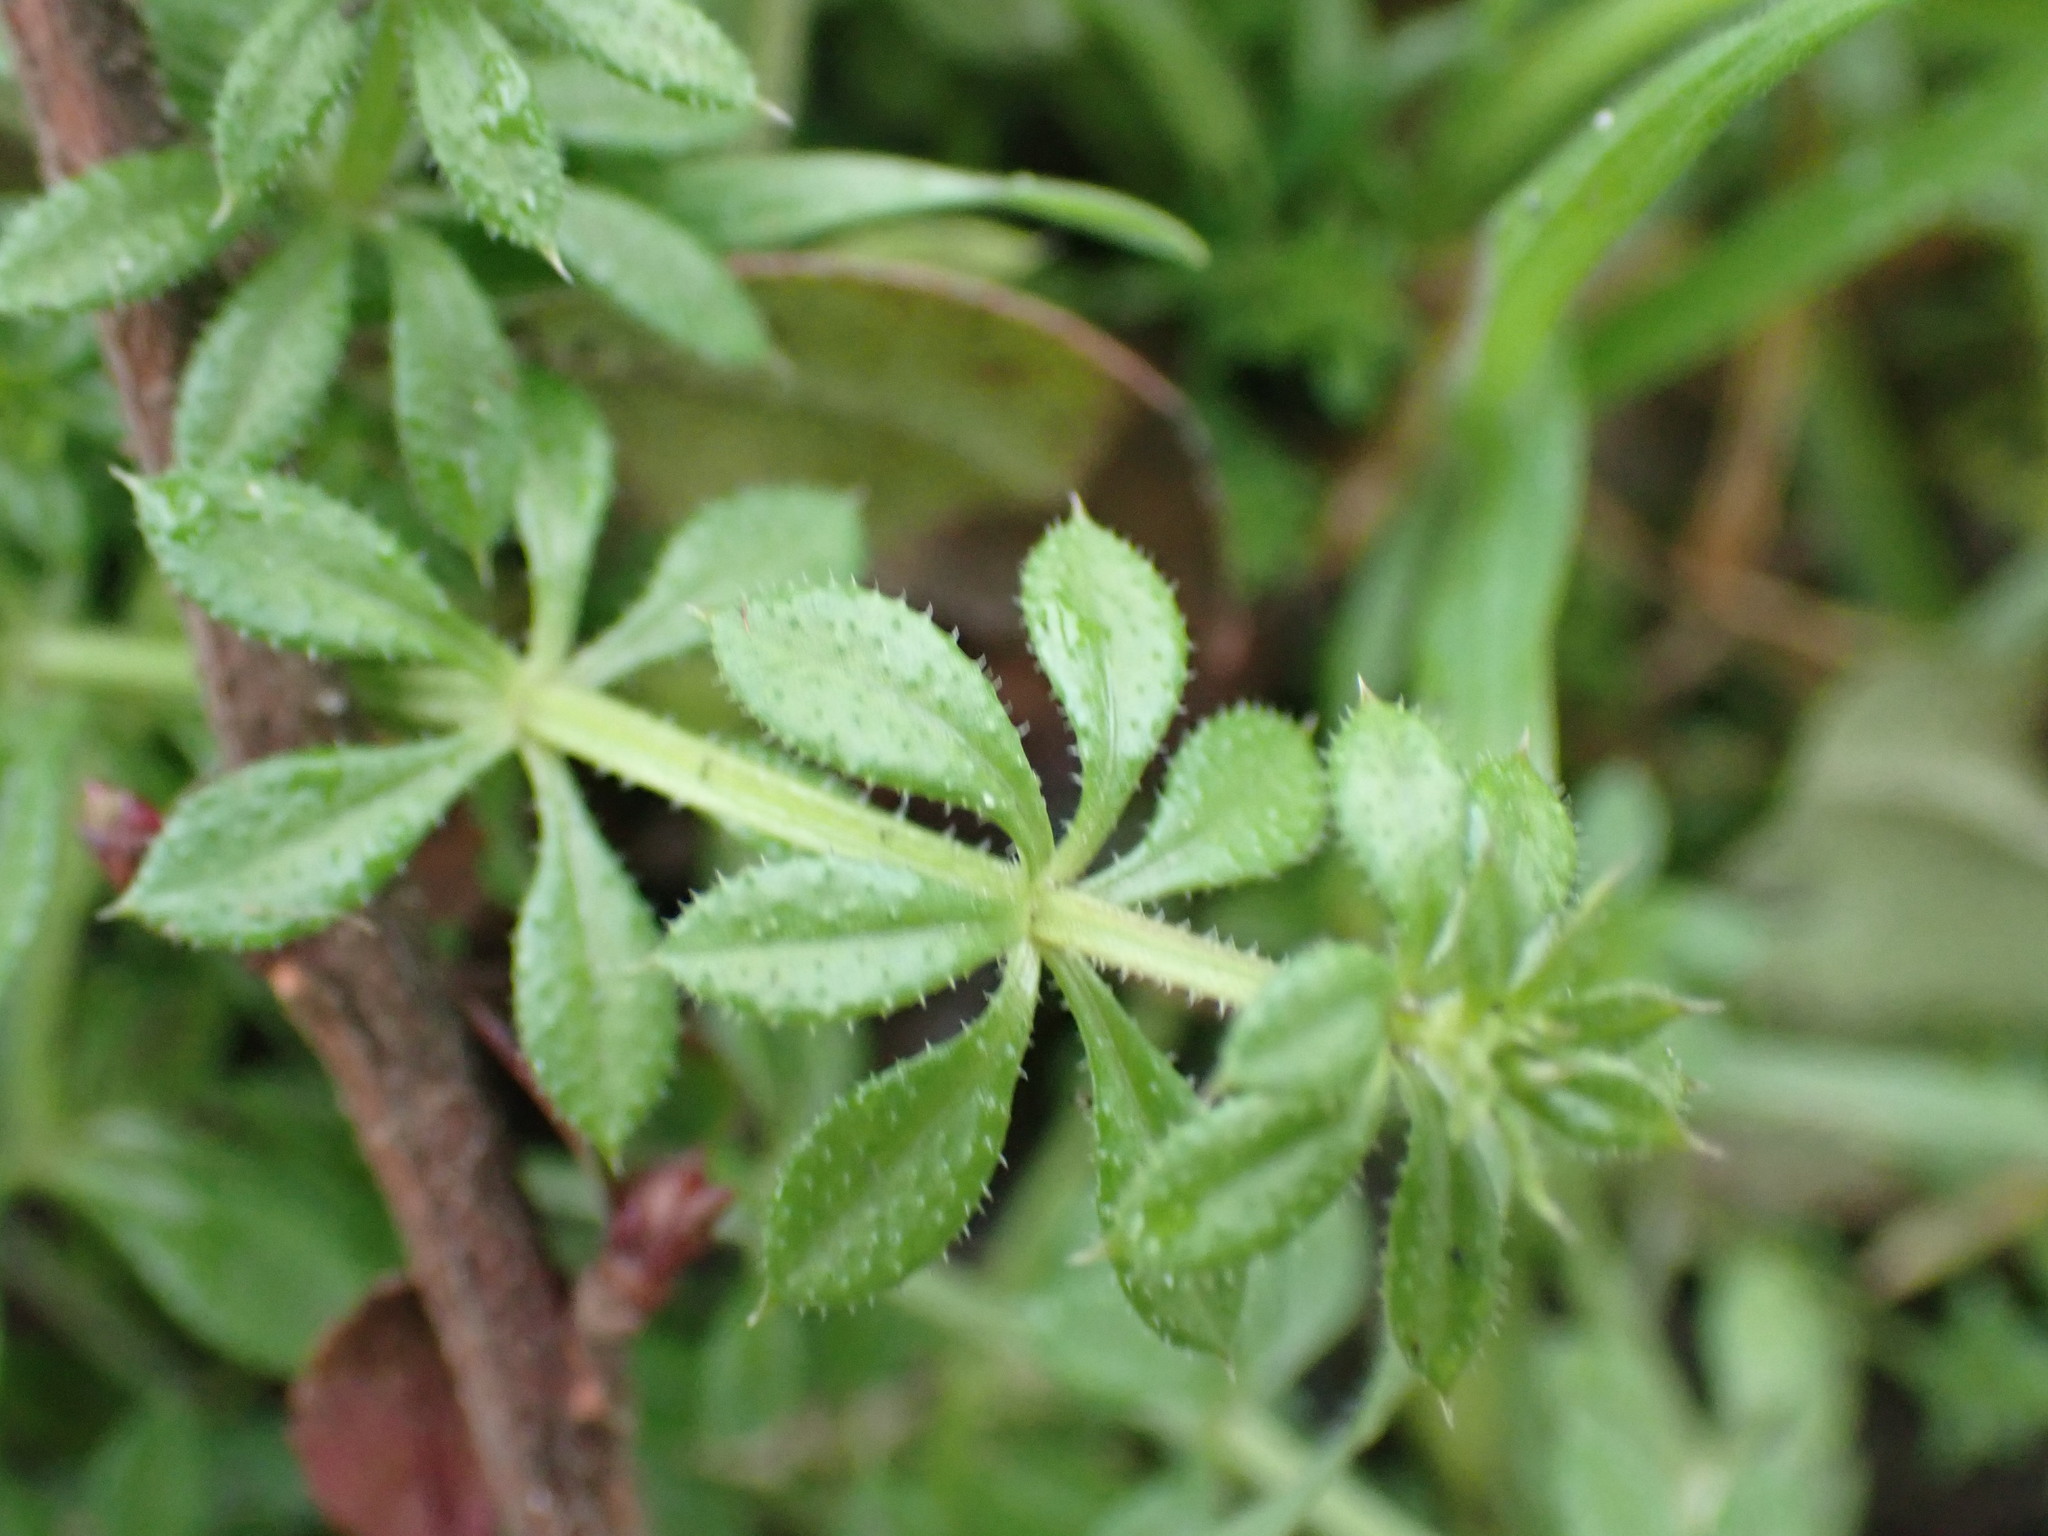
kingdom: Plantae
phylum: Tracheophyta
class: Magnoliopsida
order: Gentianales
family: Rubiaceae
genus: Galium
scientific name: Galium aparine
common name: Cleavers
